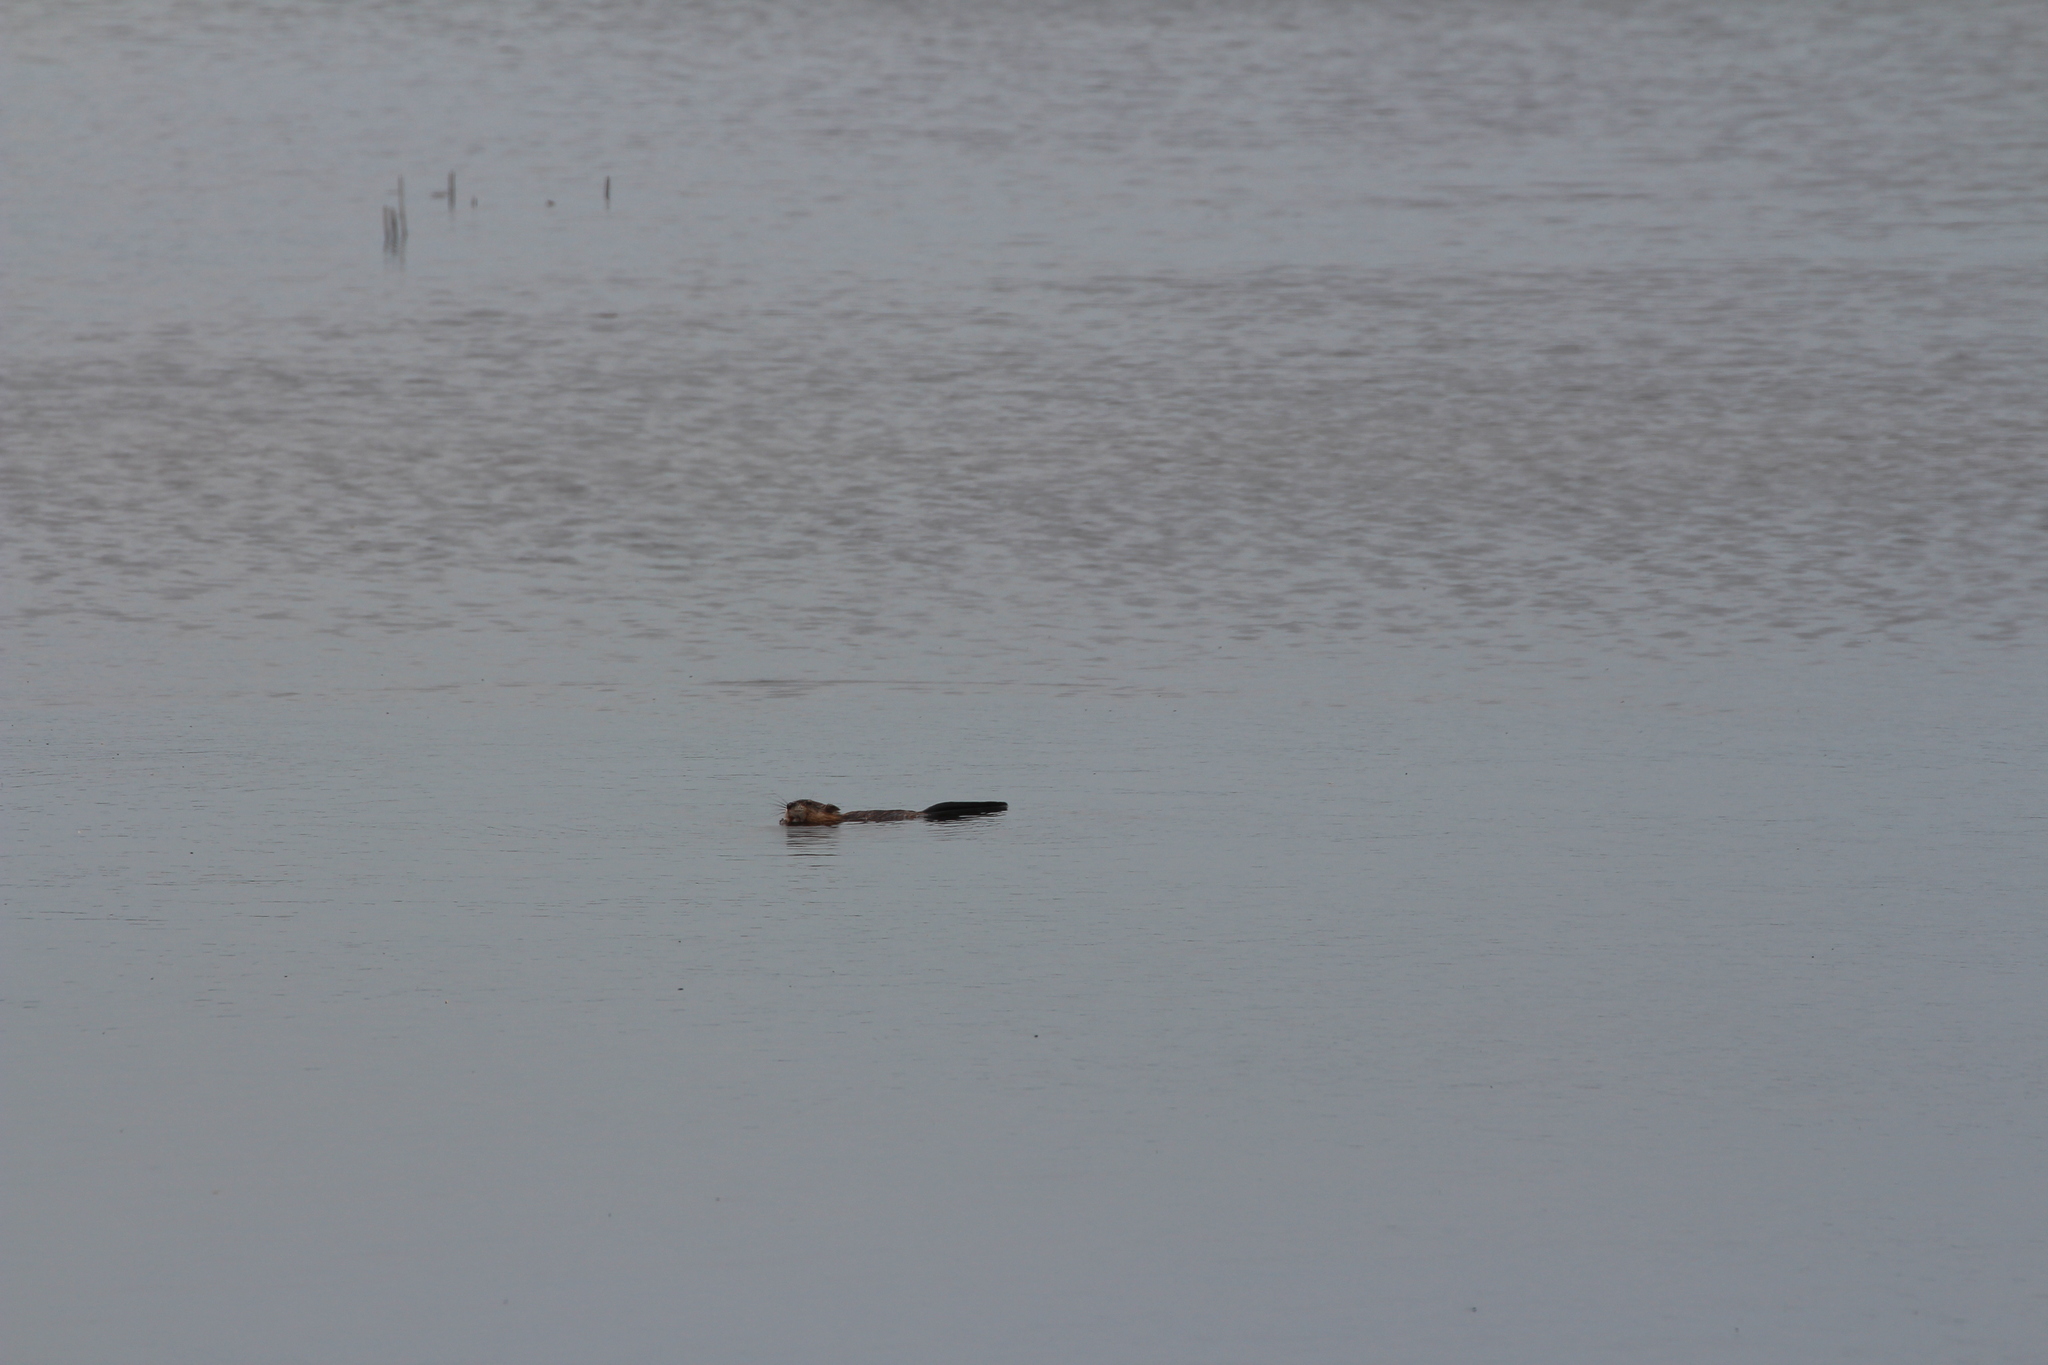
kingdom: Animalia
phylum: Chordata
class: Mammalia
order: Rodentia
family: Cricetidae
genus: Ondatra
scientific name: Ondatra zibethicus
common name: Muskrat
